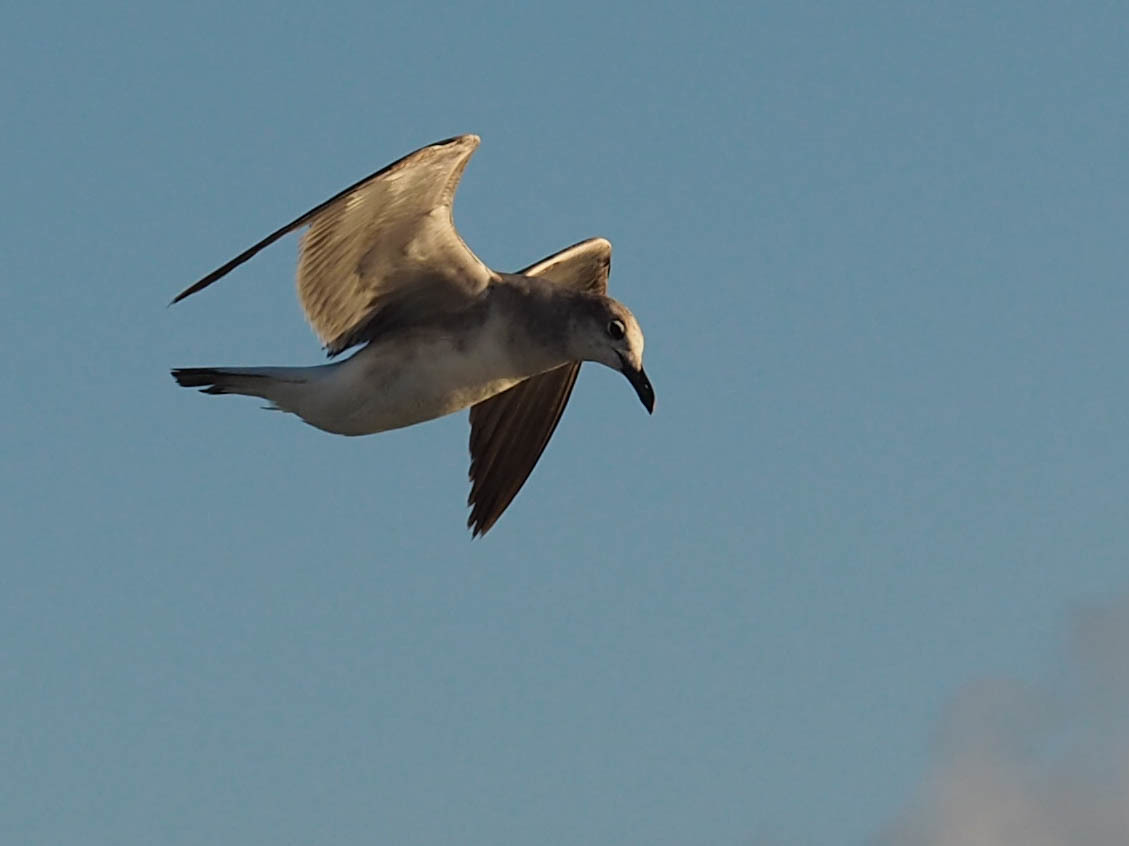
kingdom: Animalia
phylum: Chordata
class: Aves
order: Charadriiformes
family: Laridae
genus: Leucophaeus
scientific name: Leucophaeus atricilla
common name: Laughing gull
